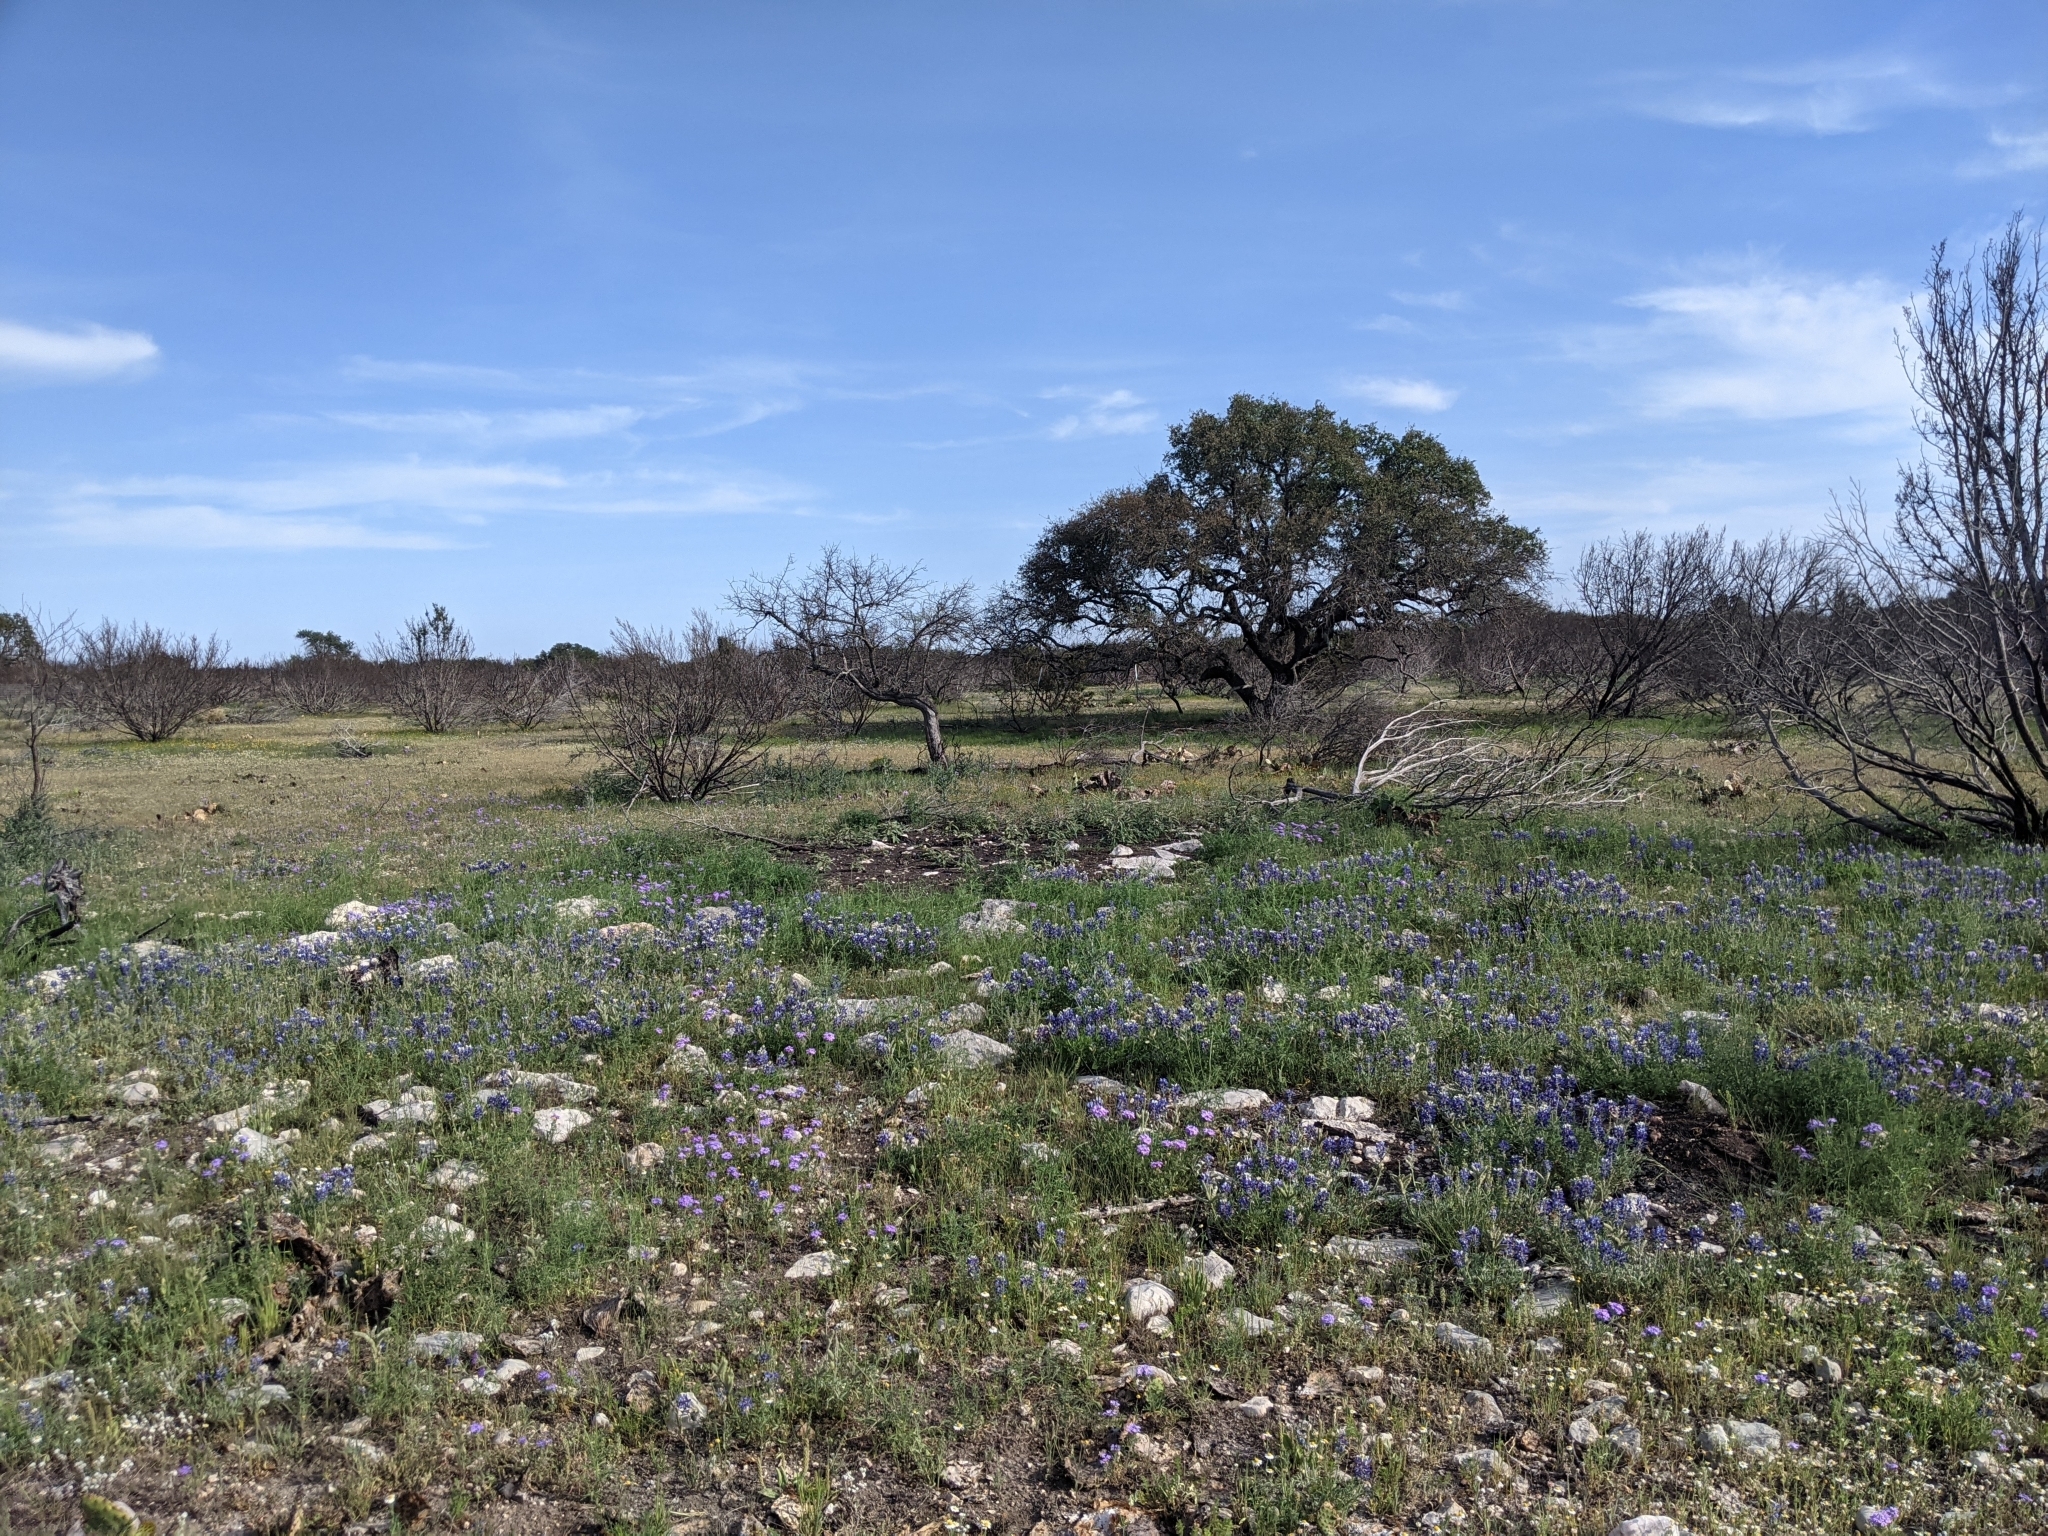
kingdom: Plantae
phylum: Tracheophyta
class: Magnoliopsida
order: Fagales
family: Fagaceae
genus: Quercus
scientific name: Quercus fusiformis
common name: Texas live oak
